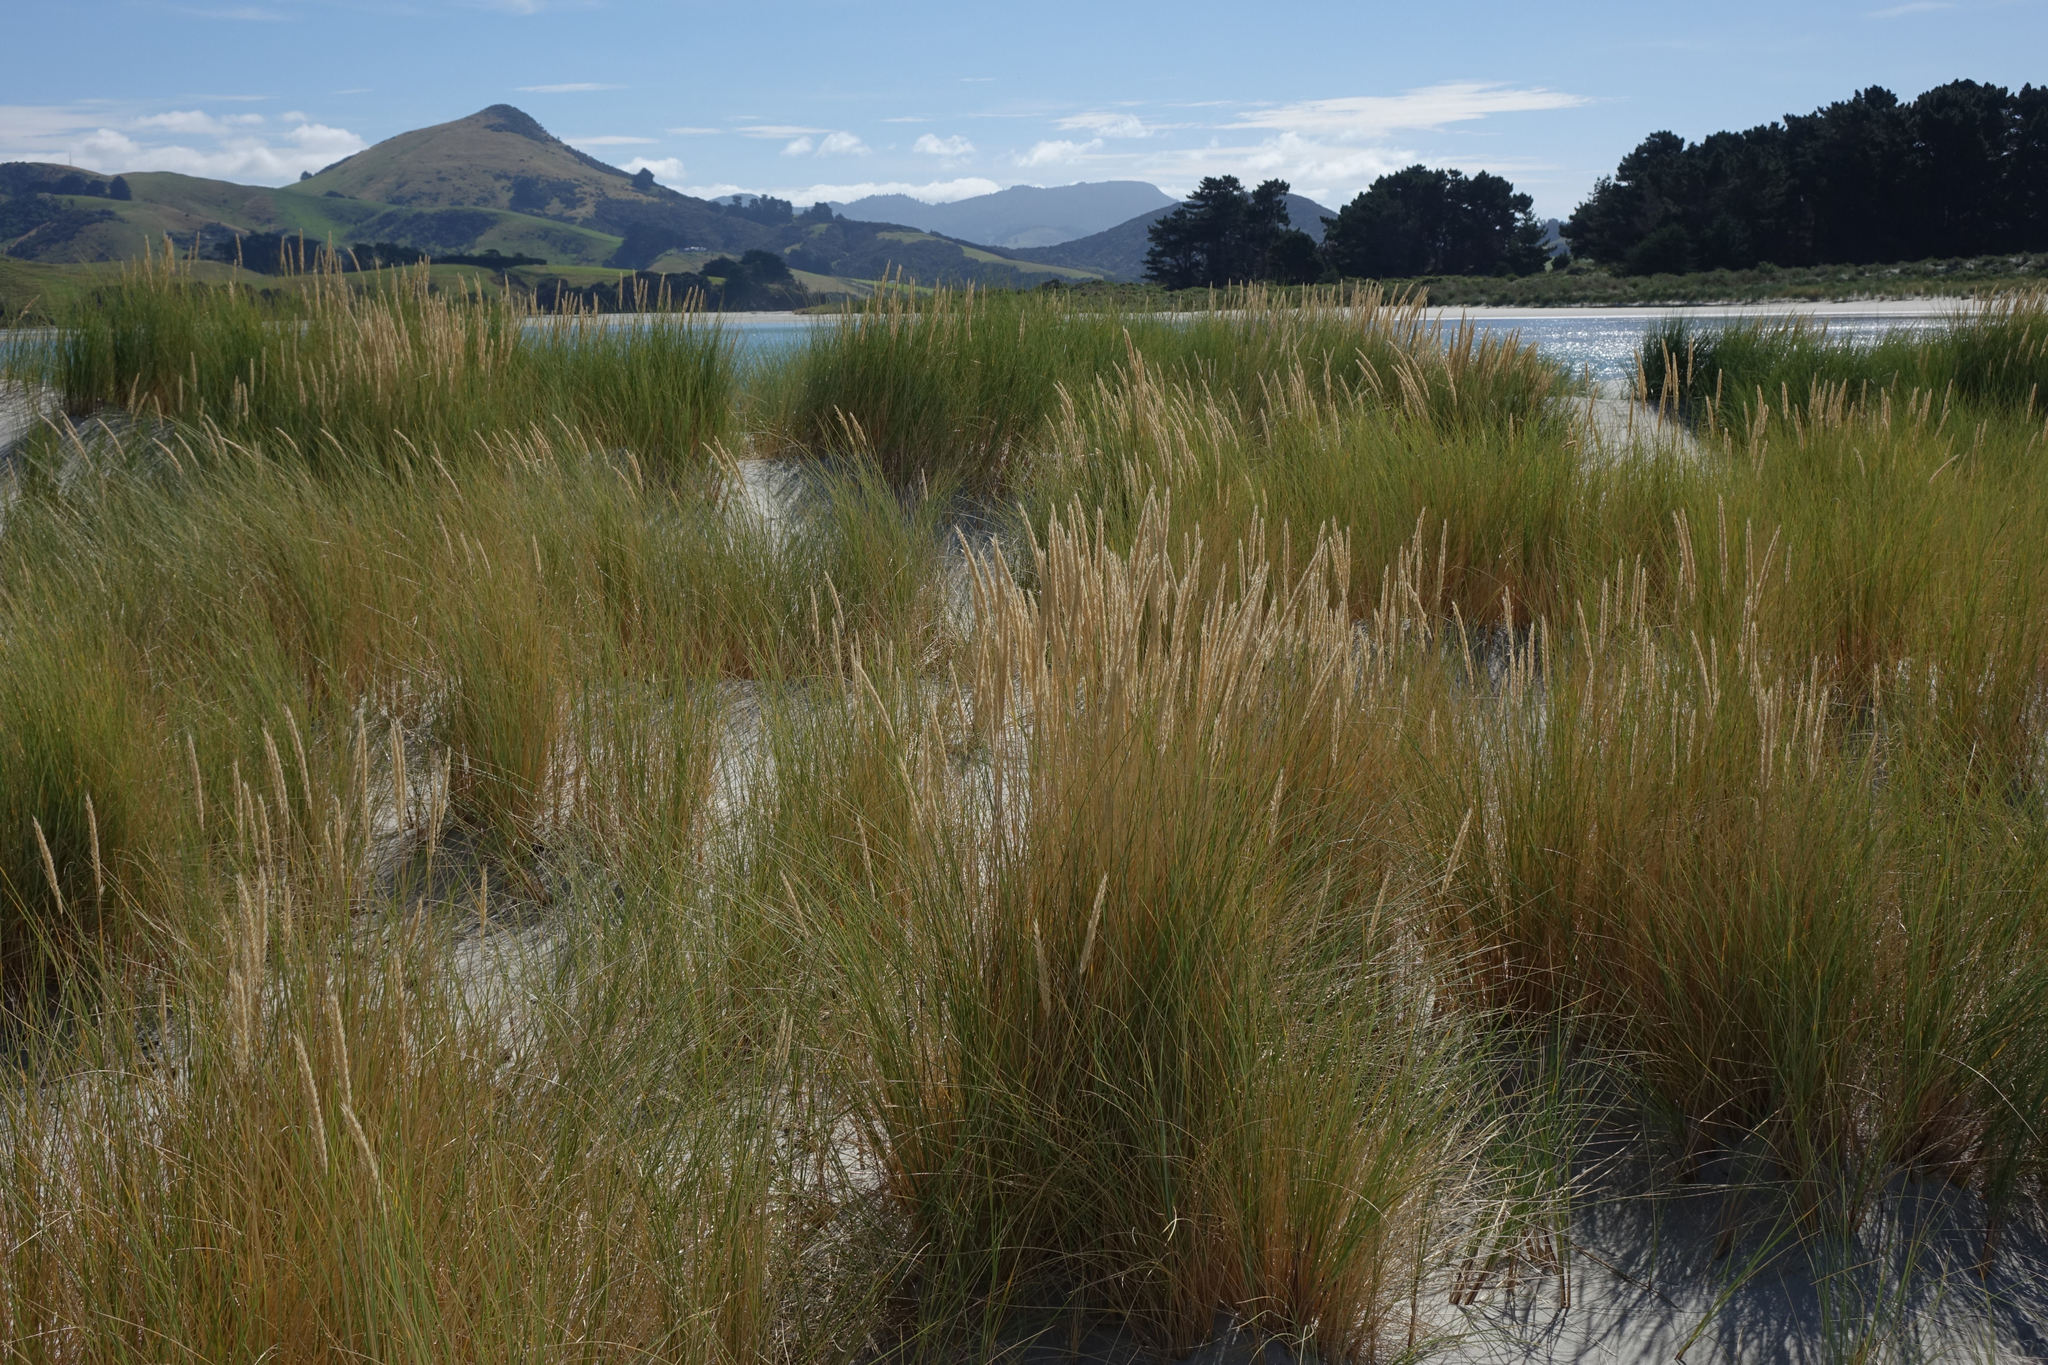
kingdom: Plantae
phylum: Tracheophyta
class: Liliopsida
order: Poales
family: Poaceae
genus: Calamagrostis
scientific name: Calamagrostis arenaria
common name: European beachgrass
